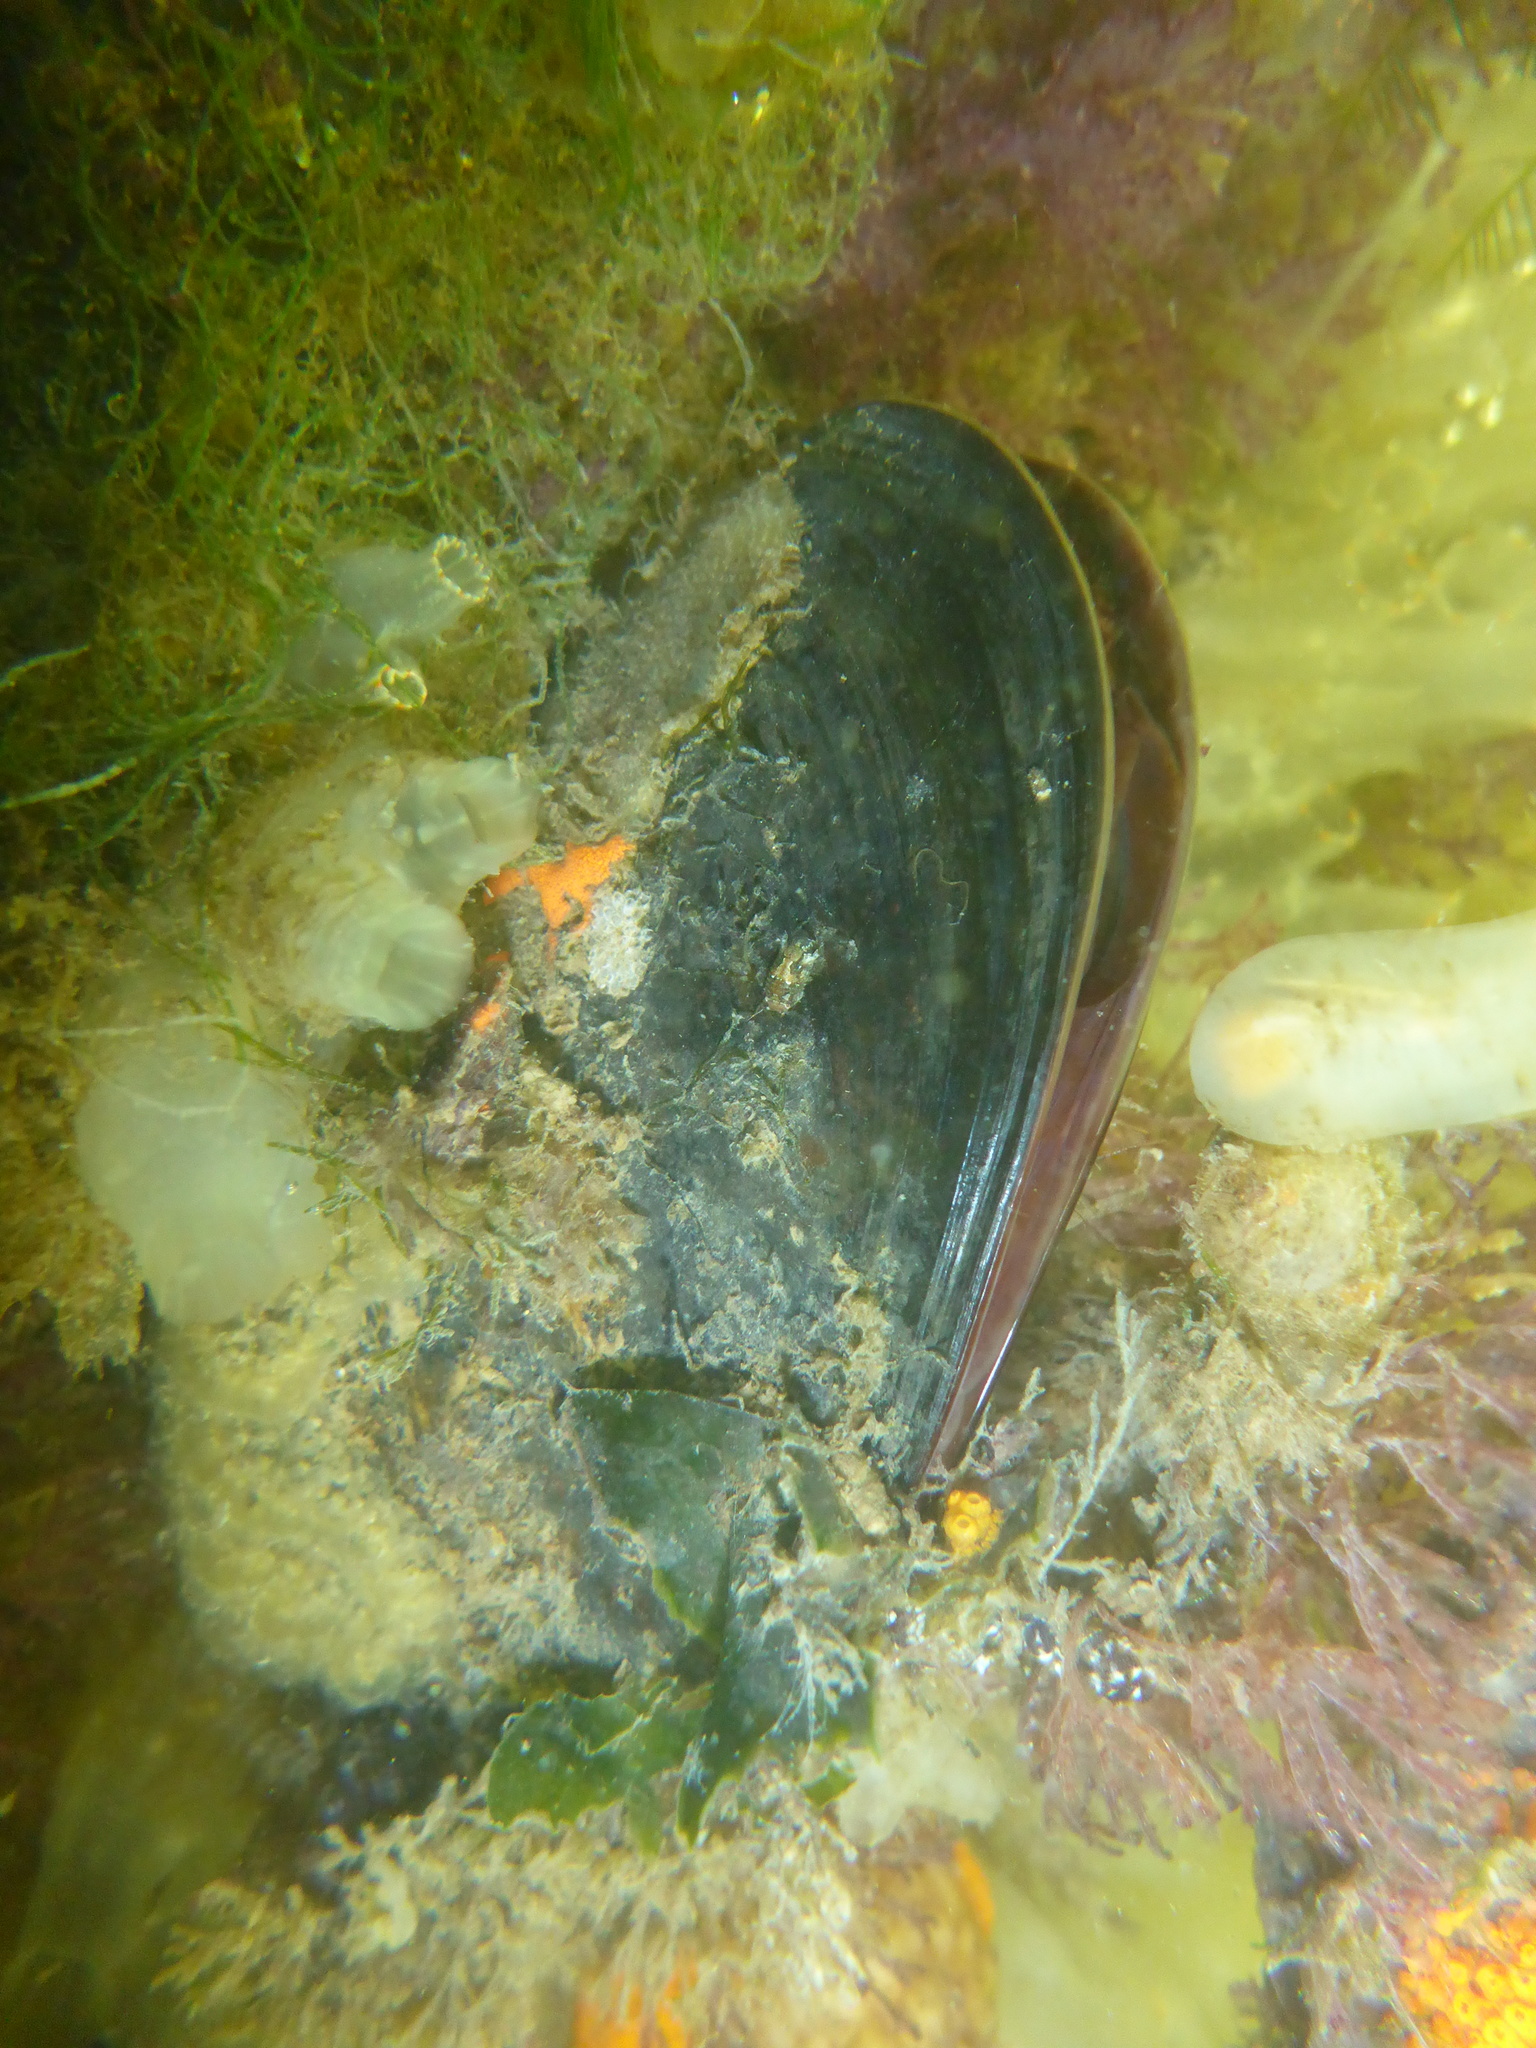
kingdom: Animalia
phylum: Mollusca
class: Bivalvia
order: Mytilida
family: Mytilidae
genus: Mytilus
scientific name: Mytilus
